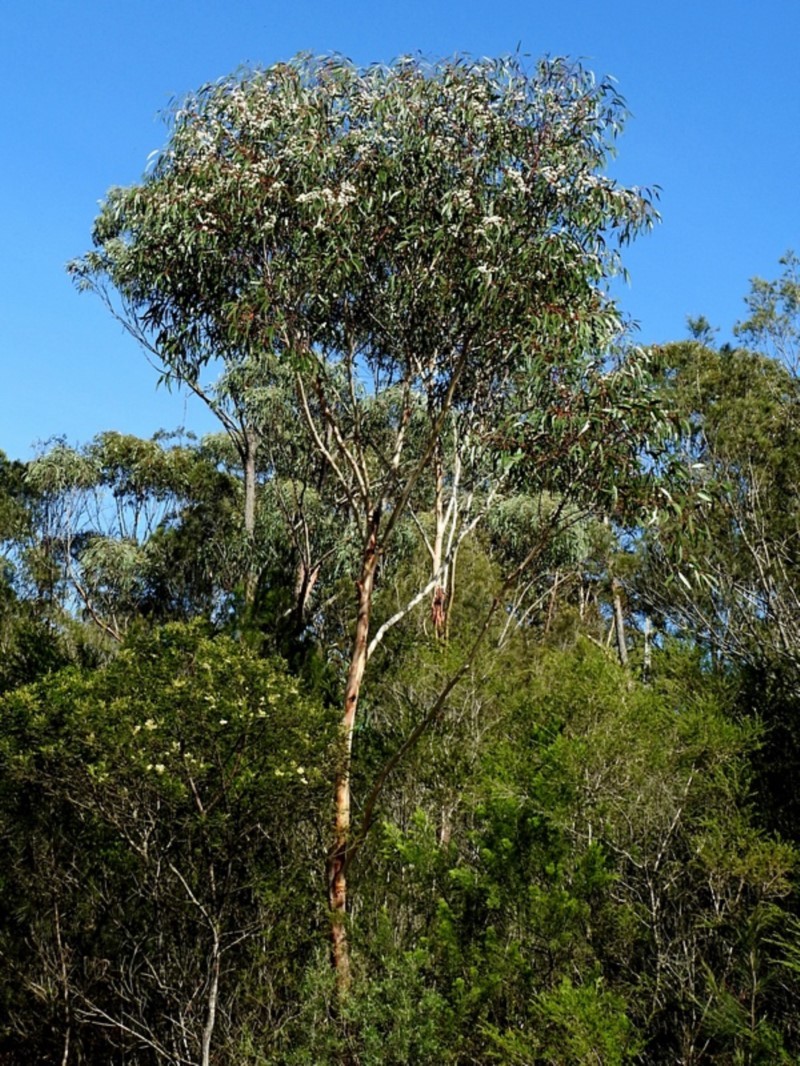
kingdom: Plantae
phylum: Tracheophyta
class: Magnoliopsida
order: Myrtales
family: Myrtaceae
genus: Eucalyptus
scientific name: Eucalyptus sieberi
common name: Black-ash
